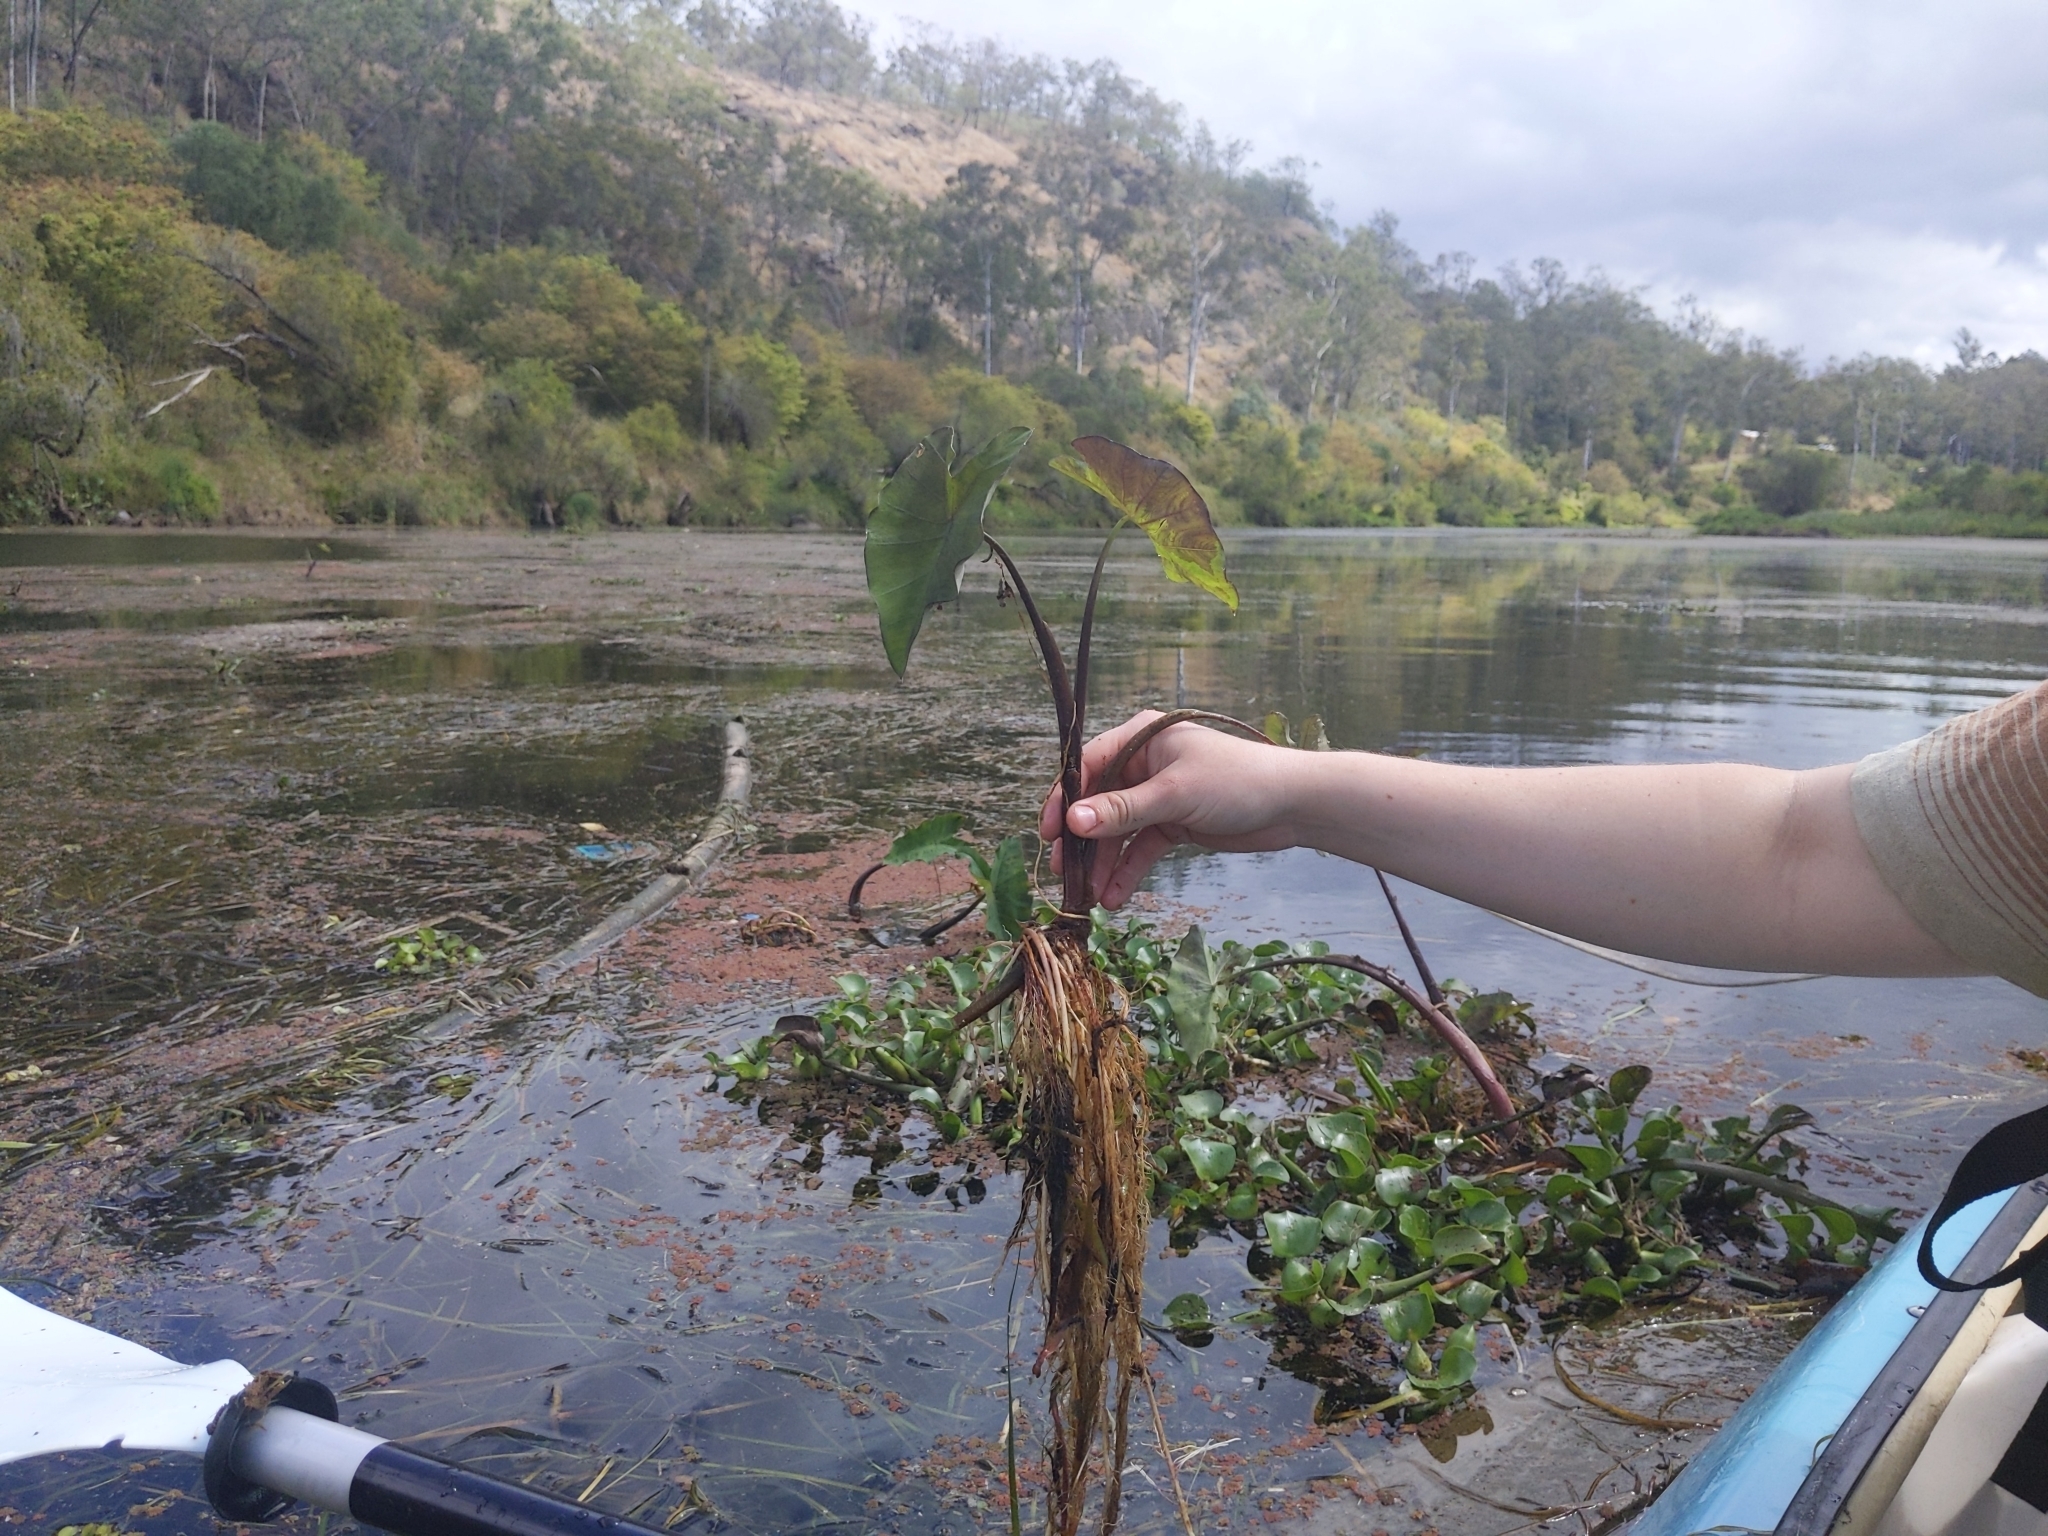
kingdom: Plantae
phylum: Tracheophyta
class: Liliopsida
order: Alismatales
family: Araceae
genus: Colocasia
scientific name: Colocasia esculenta
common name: Taro
